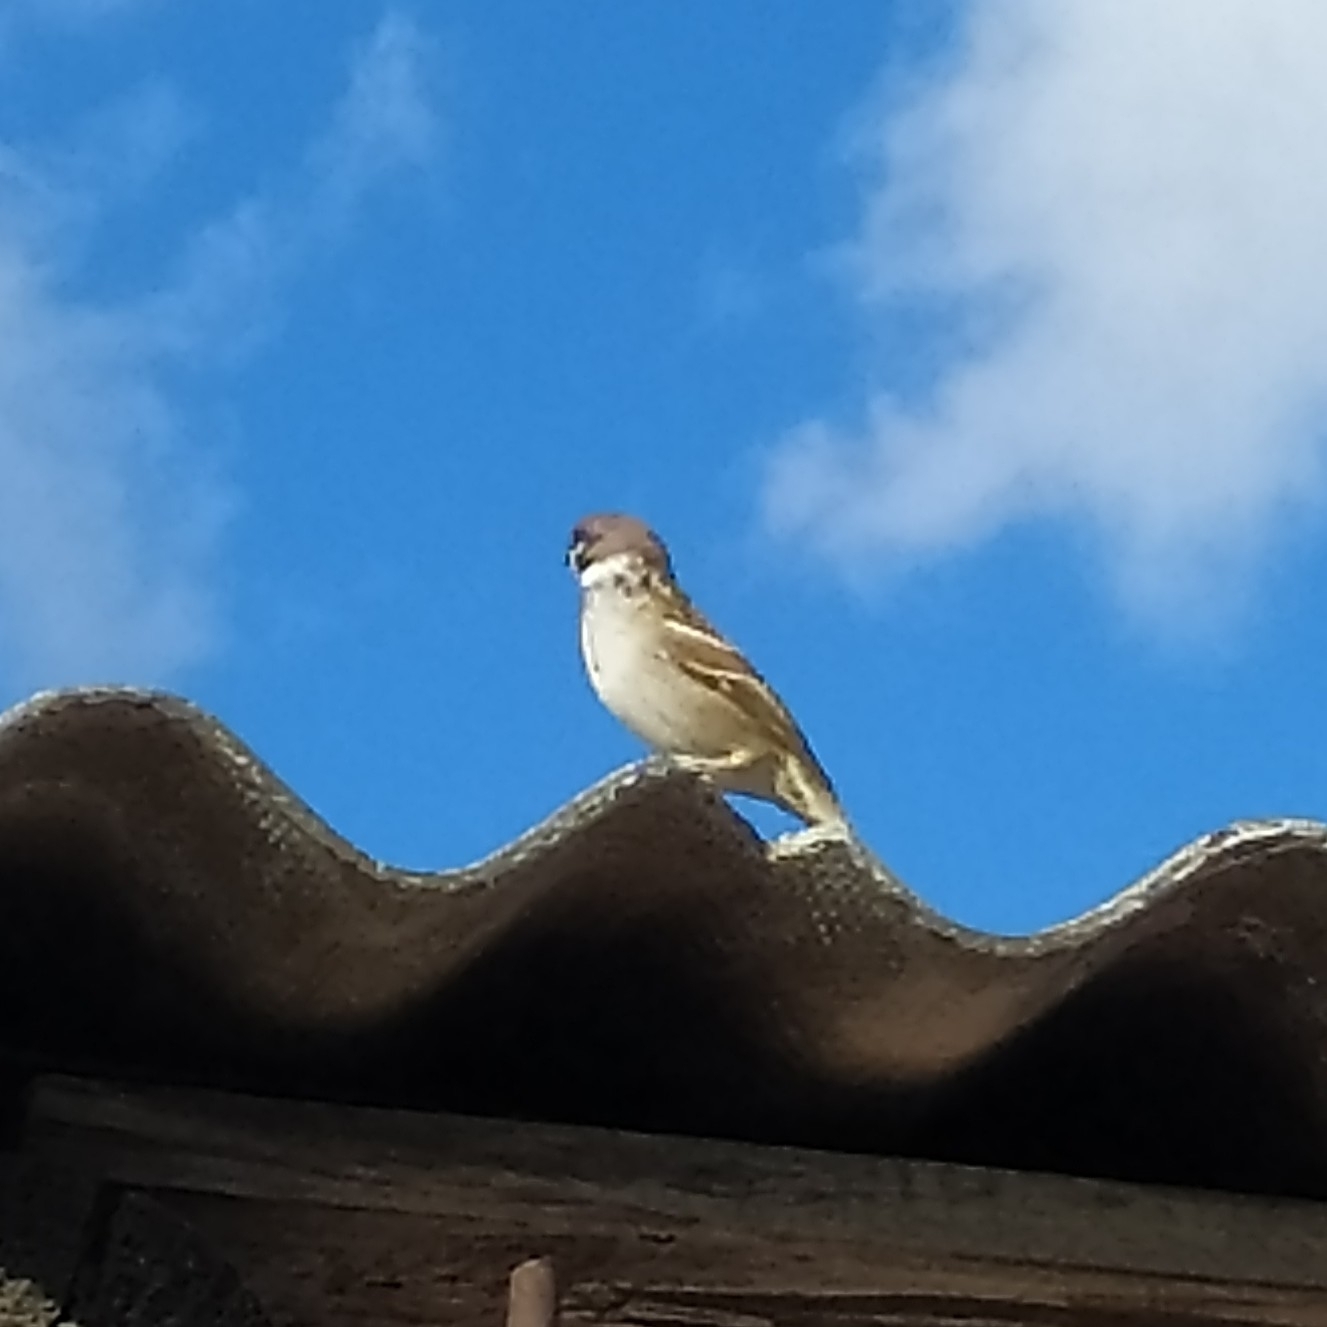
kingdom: Animalia
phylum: Chordata
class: Aves
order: Passeriformes
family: Passeridae
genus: Passer
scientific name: Passer montanus
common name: Eurasian tree sparrow
